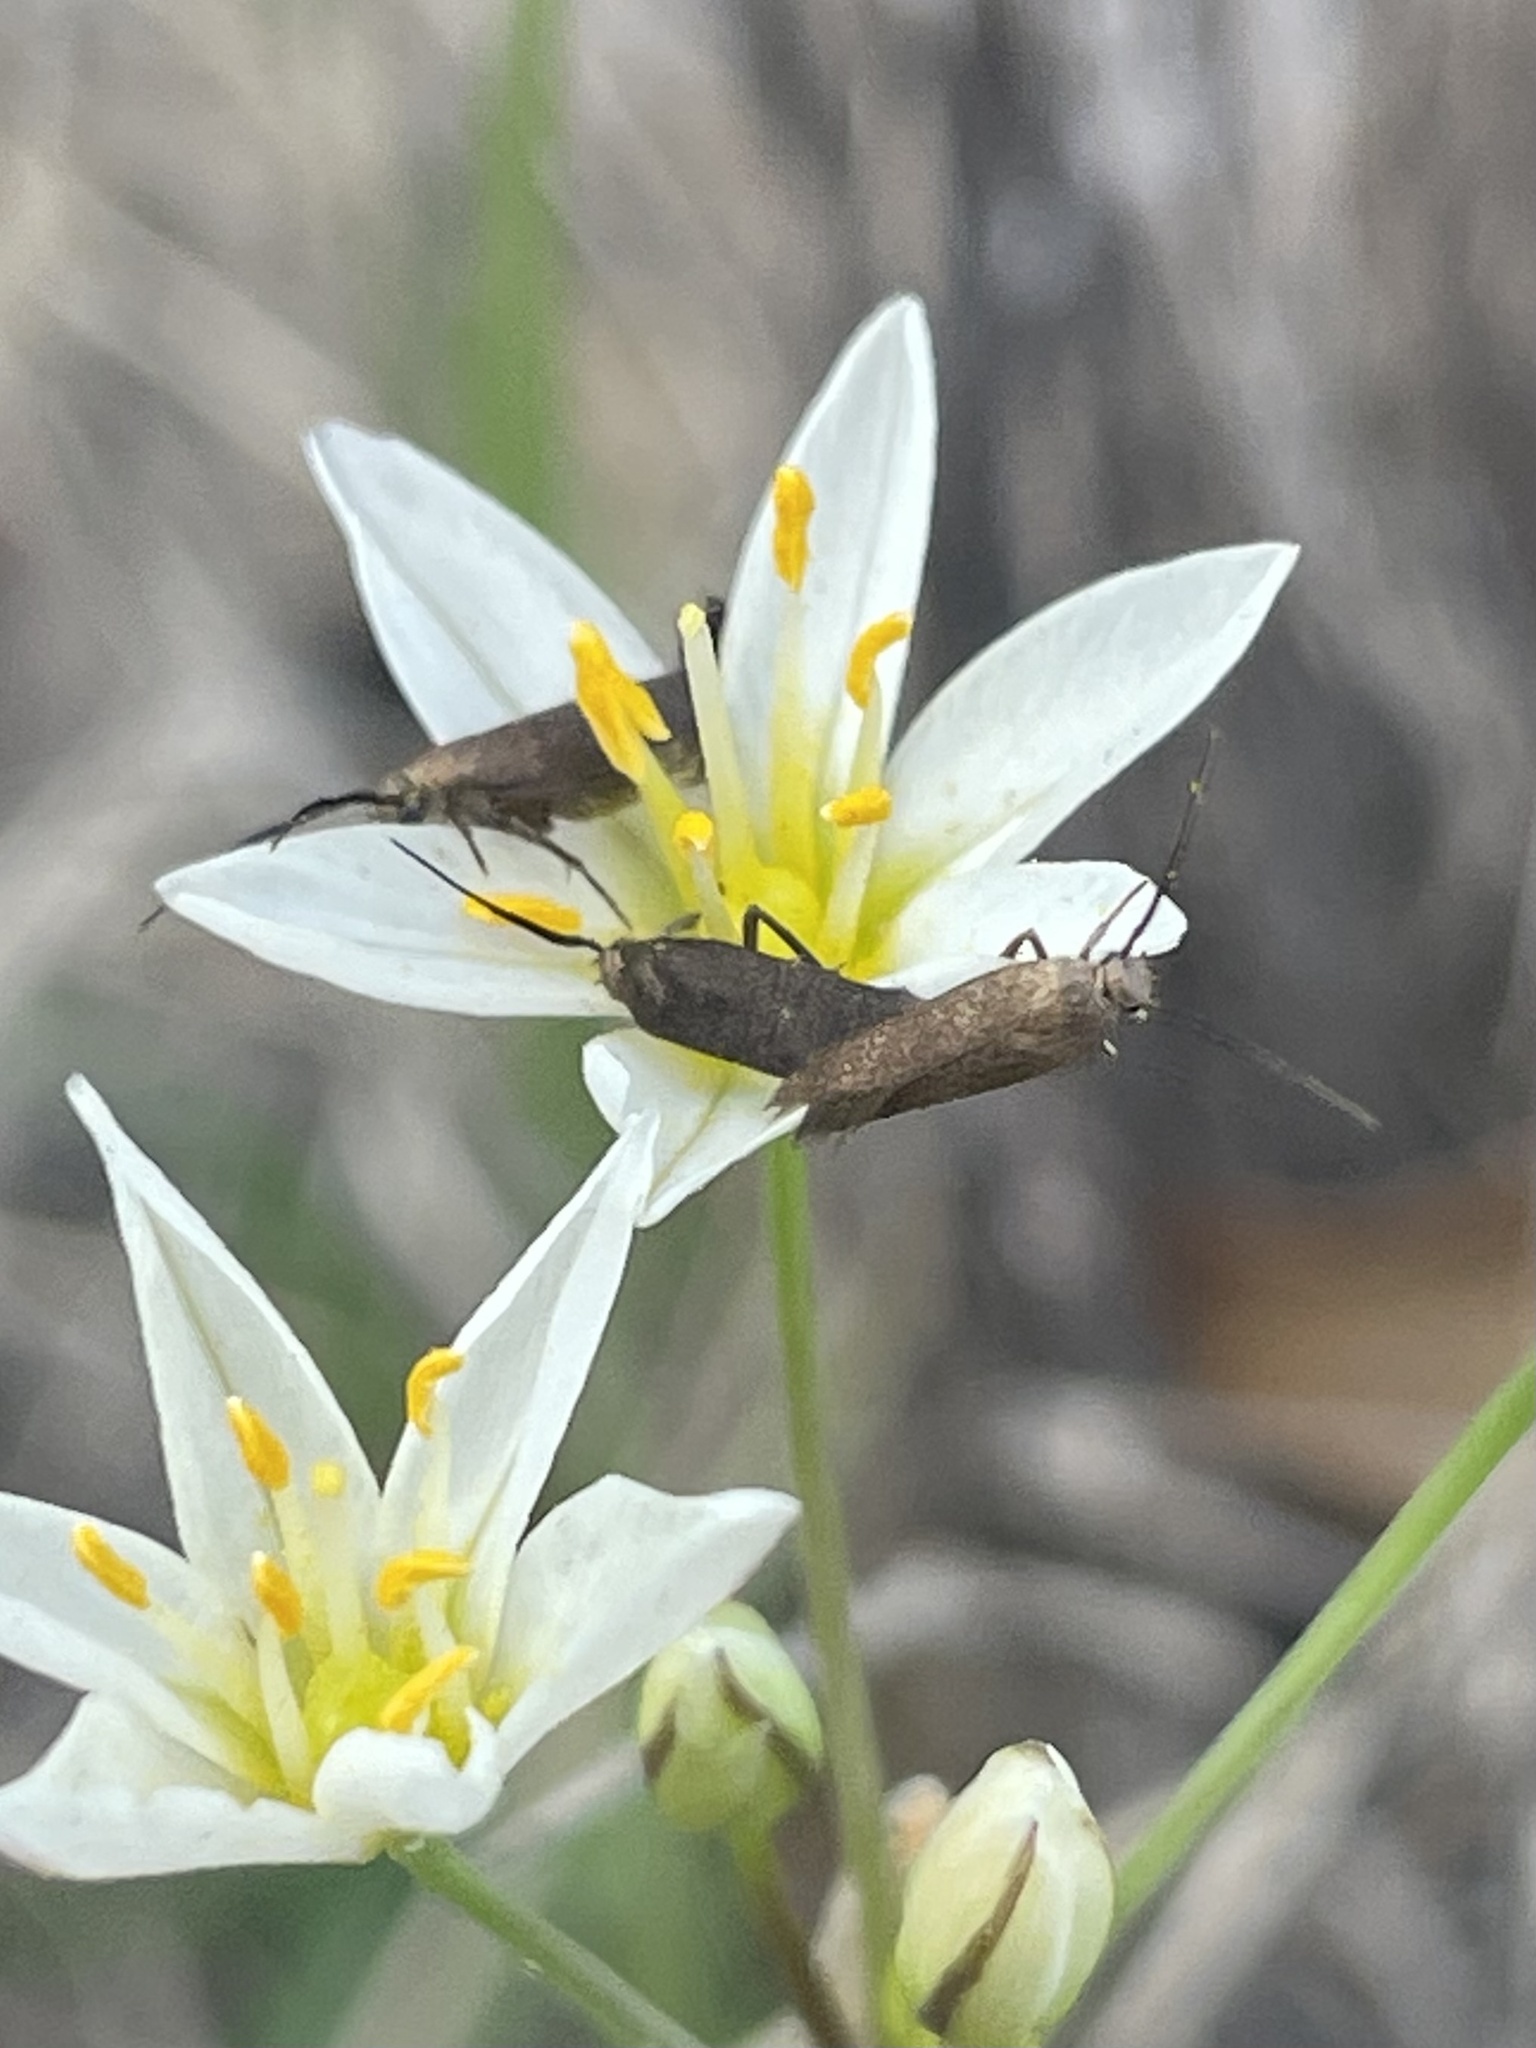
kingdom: Plantae
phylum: Tracheophyta
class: Liliopsida
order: Asparagales
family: Amaryllidaceae
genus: Nothoscordum
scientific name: Nothoscordum bivalve
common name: Crow-poison
